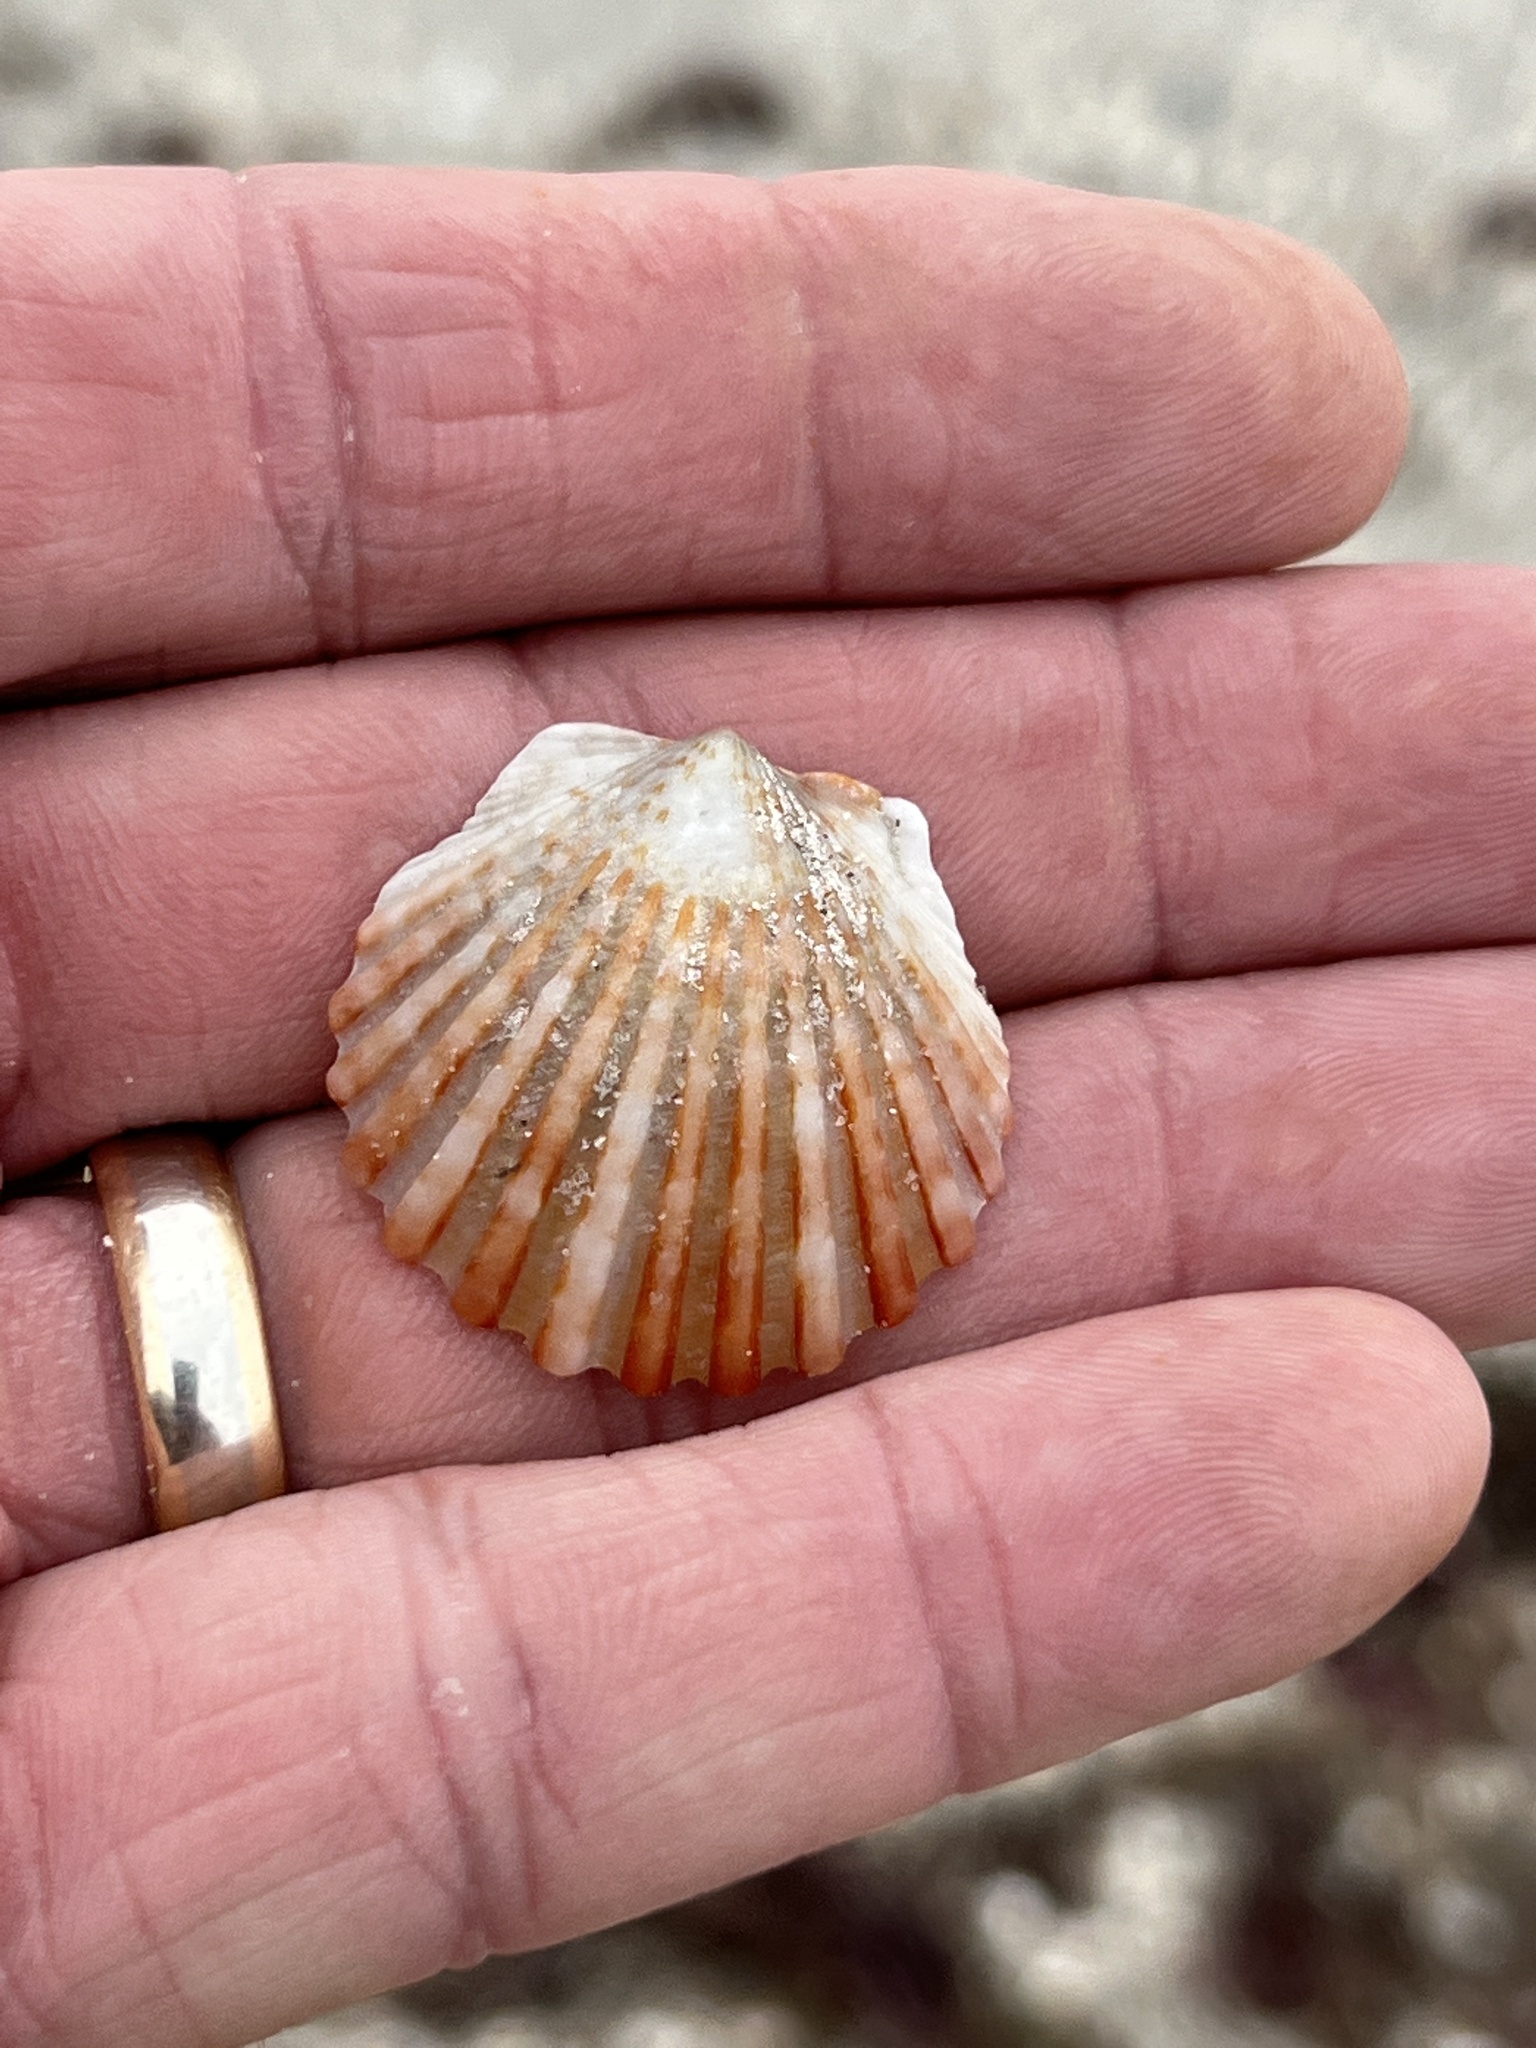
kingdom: Animalia
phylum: Mollusca
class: Bivalvia
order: Pectinida
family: Pectinidae
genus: Argopecten
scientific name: Argopecten irradians
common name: Atlantic bay scallop
